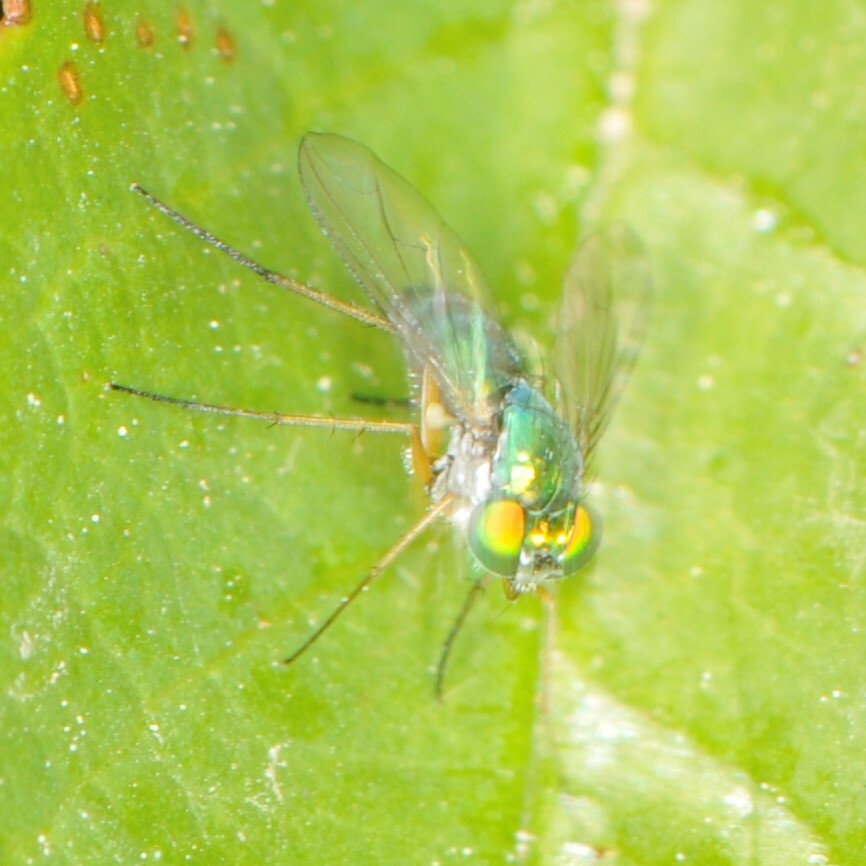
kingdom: Animalia
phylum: Arthropoda
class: Insecta
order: Diptera
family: Dolichopodidae
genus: Condylostylus
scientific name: Condylostylus
